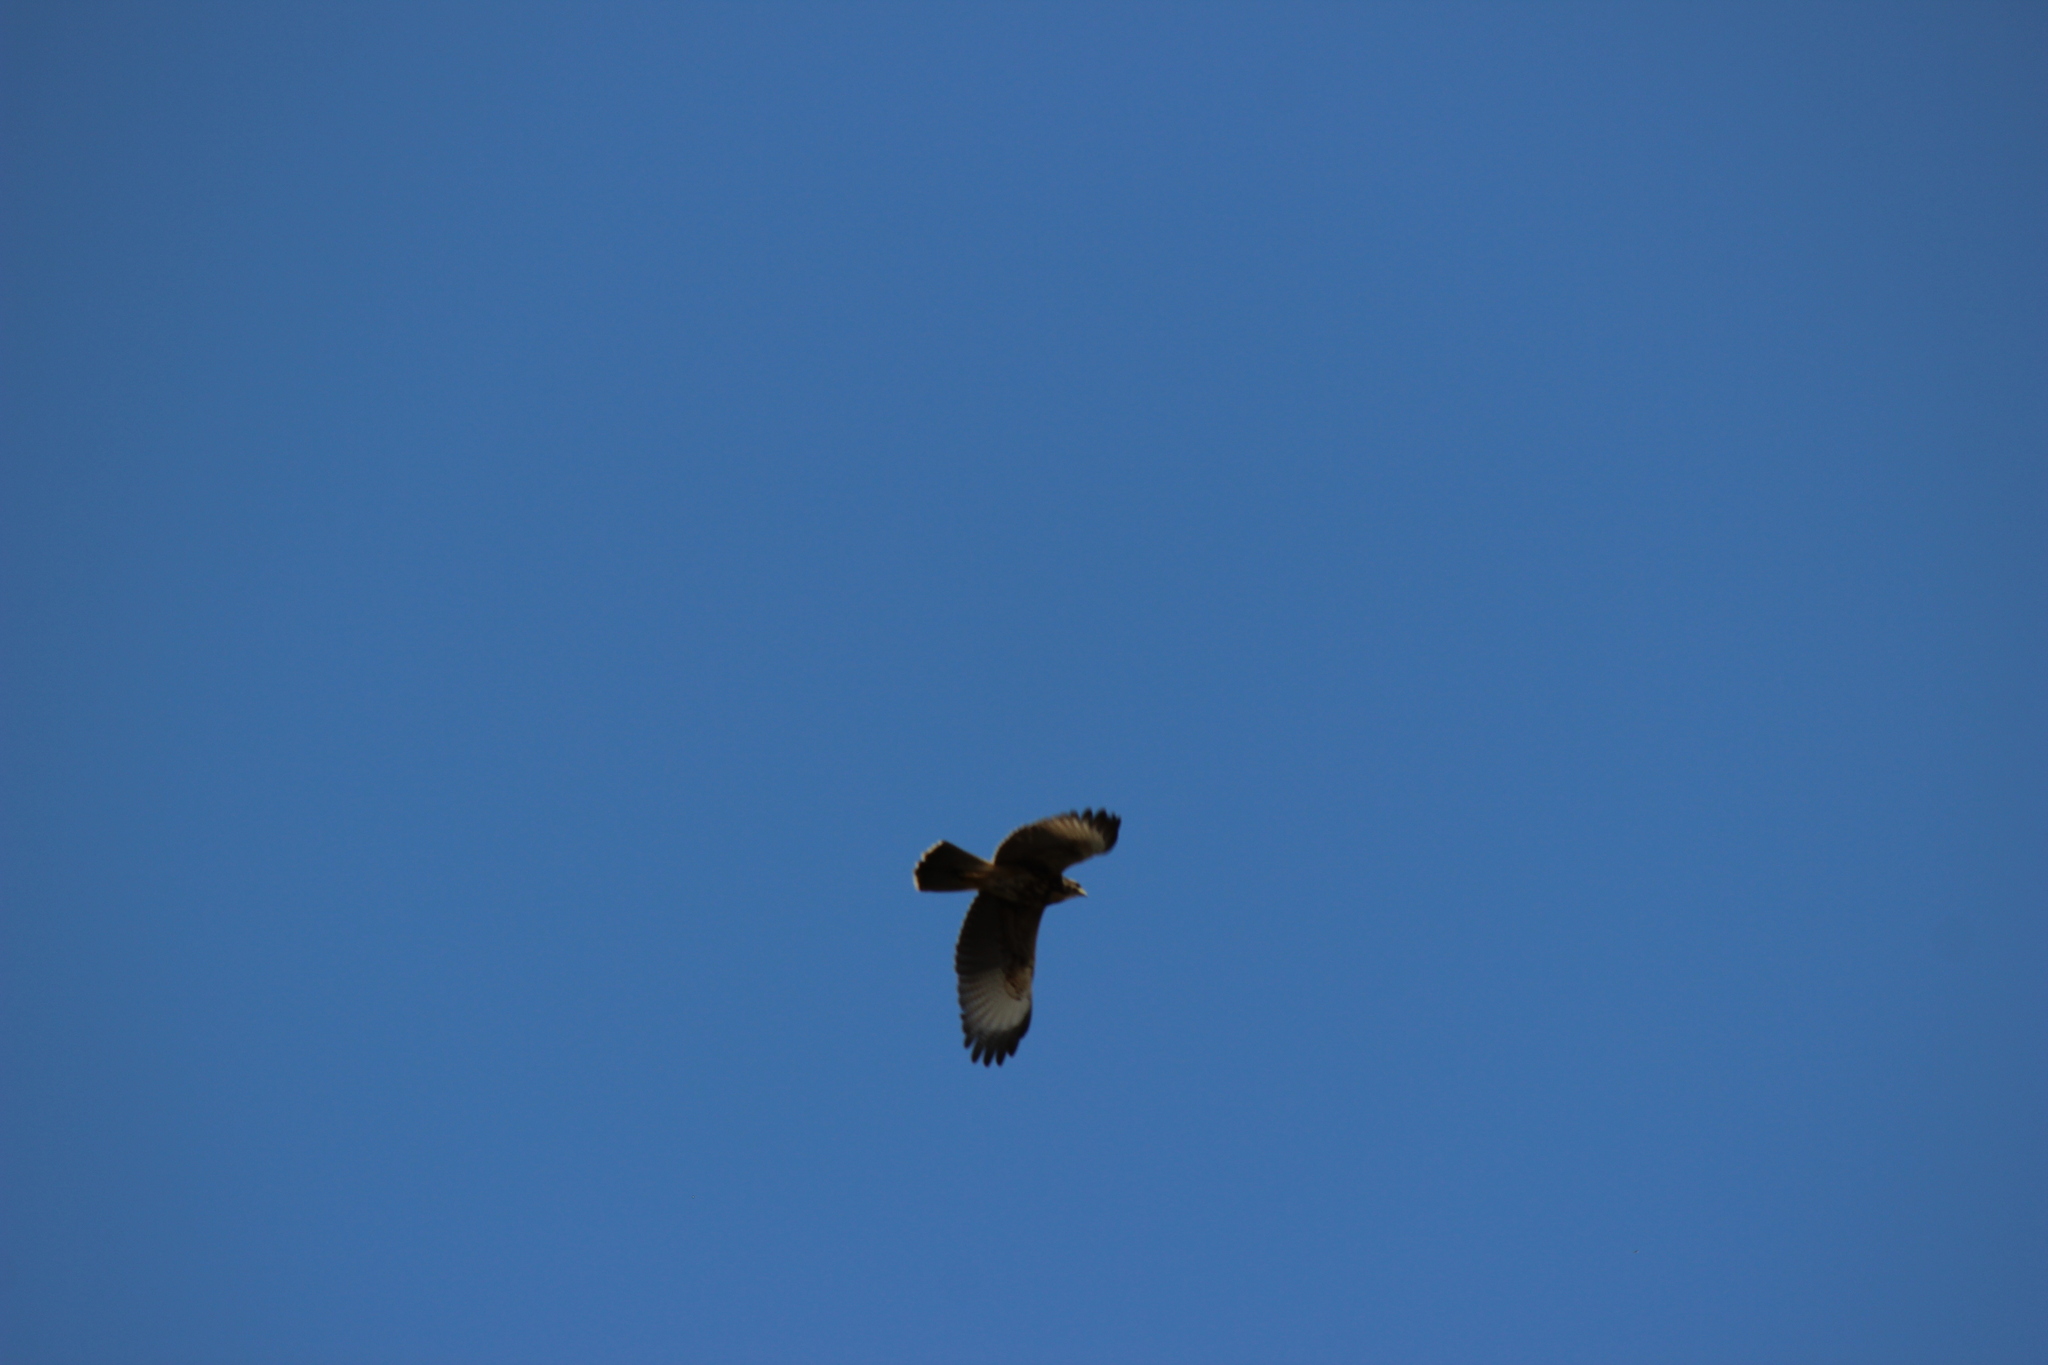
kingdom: Animalia
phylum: Chordata
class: Aves
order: Accipitriformes
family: Accipitridae
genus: Parabuteo
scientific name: Parabuteo unicinctus
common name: Harris's hawk
